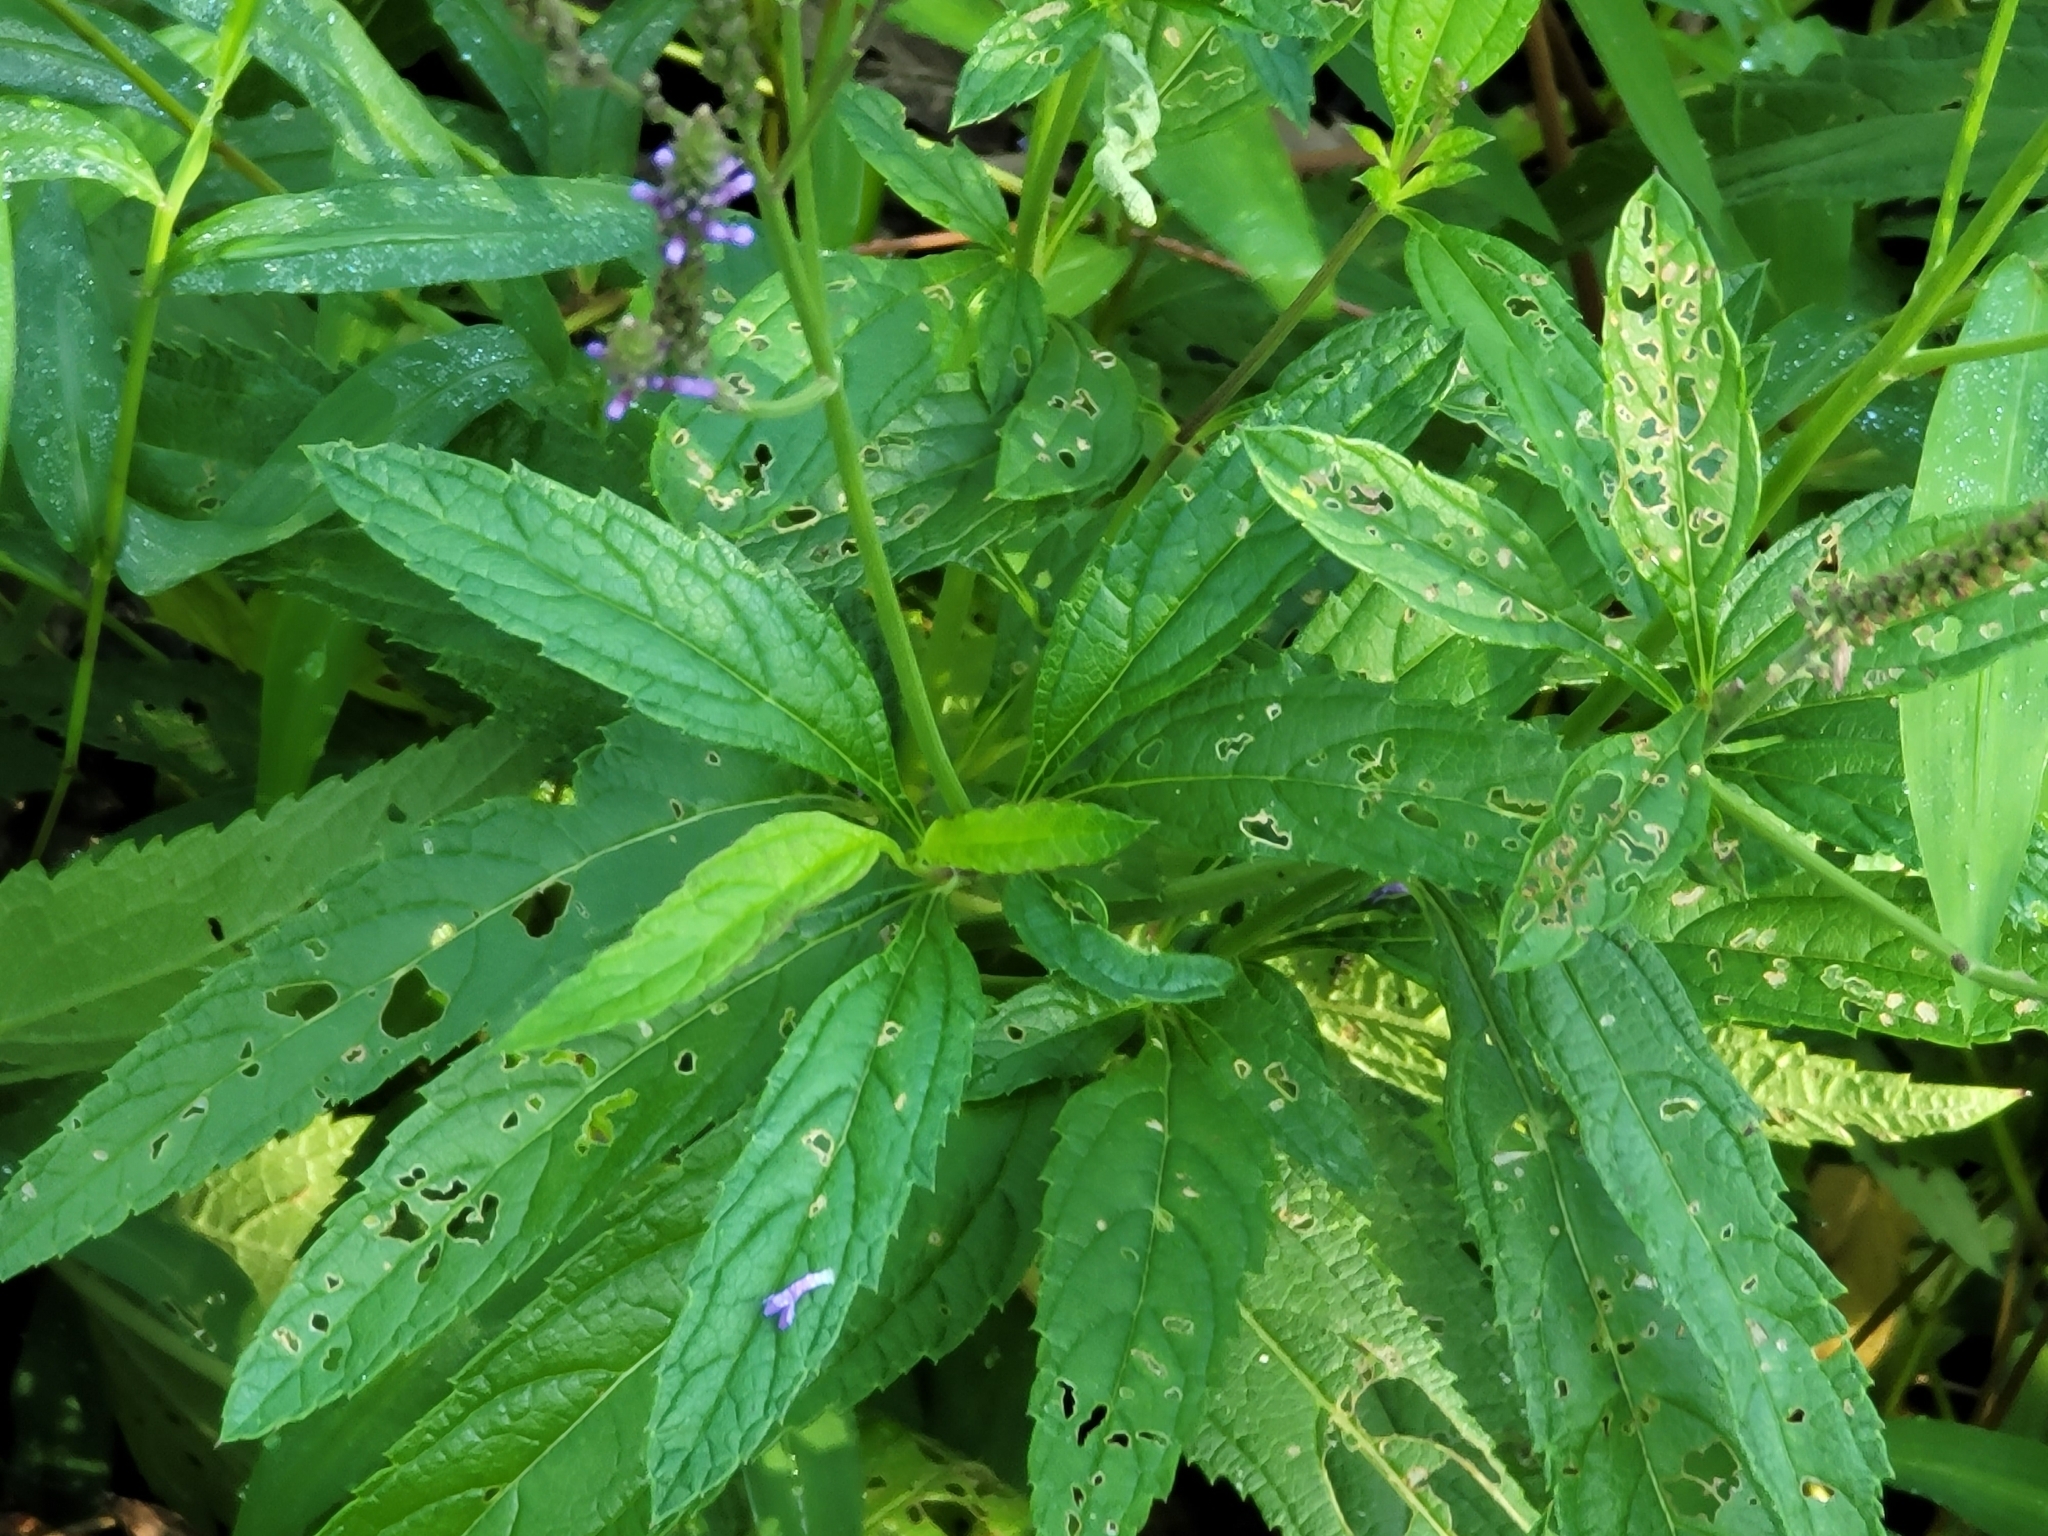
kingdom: Plantae
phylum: Tracheophyta
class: Magnoliopsida
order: Lamiales
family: Verbenaceae
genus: Verbena
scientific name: Verbena hastata
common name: American blue vervain
